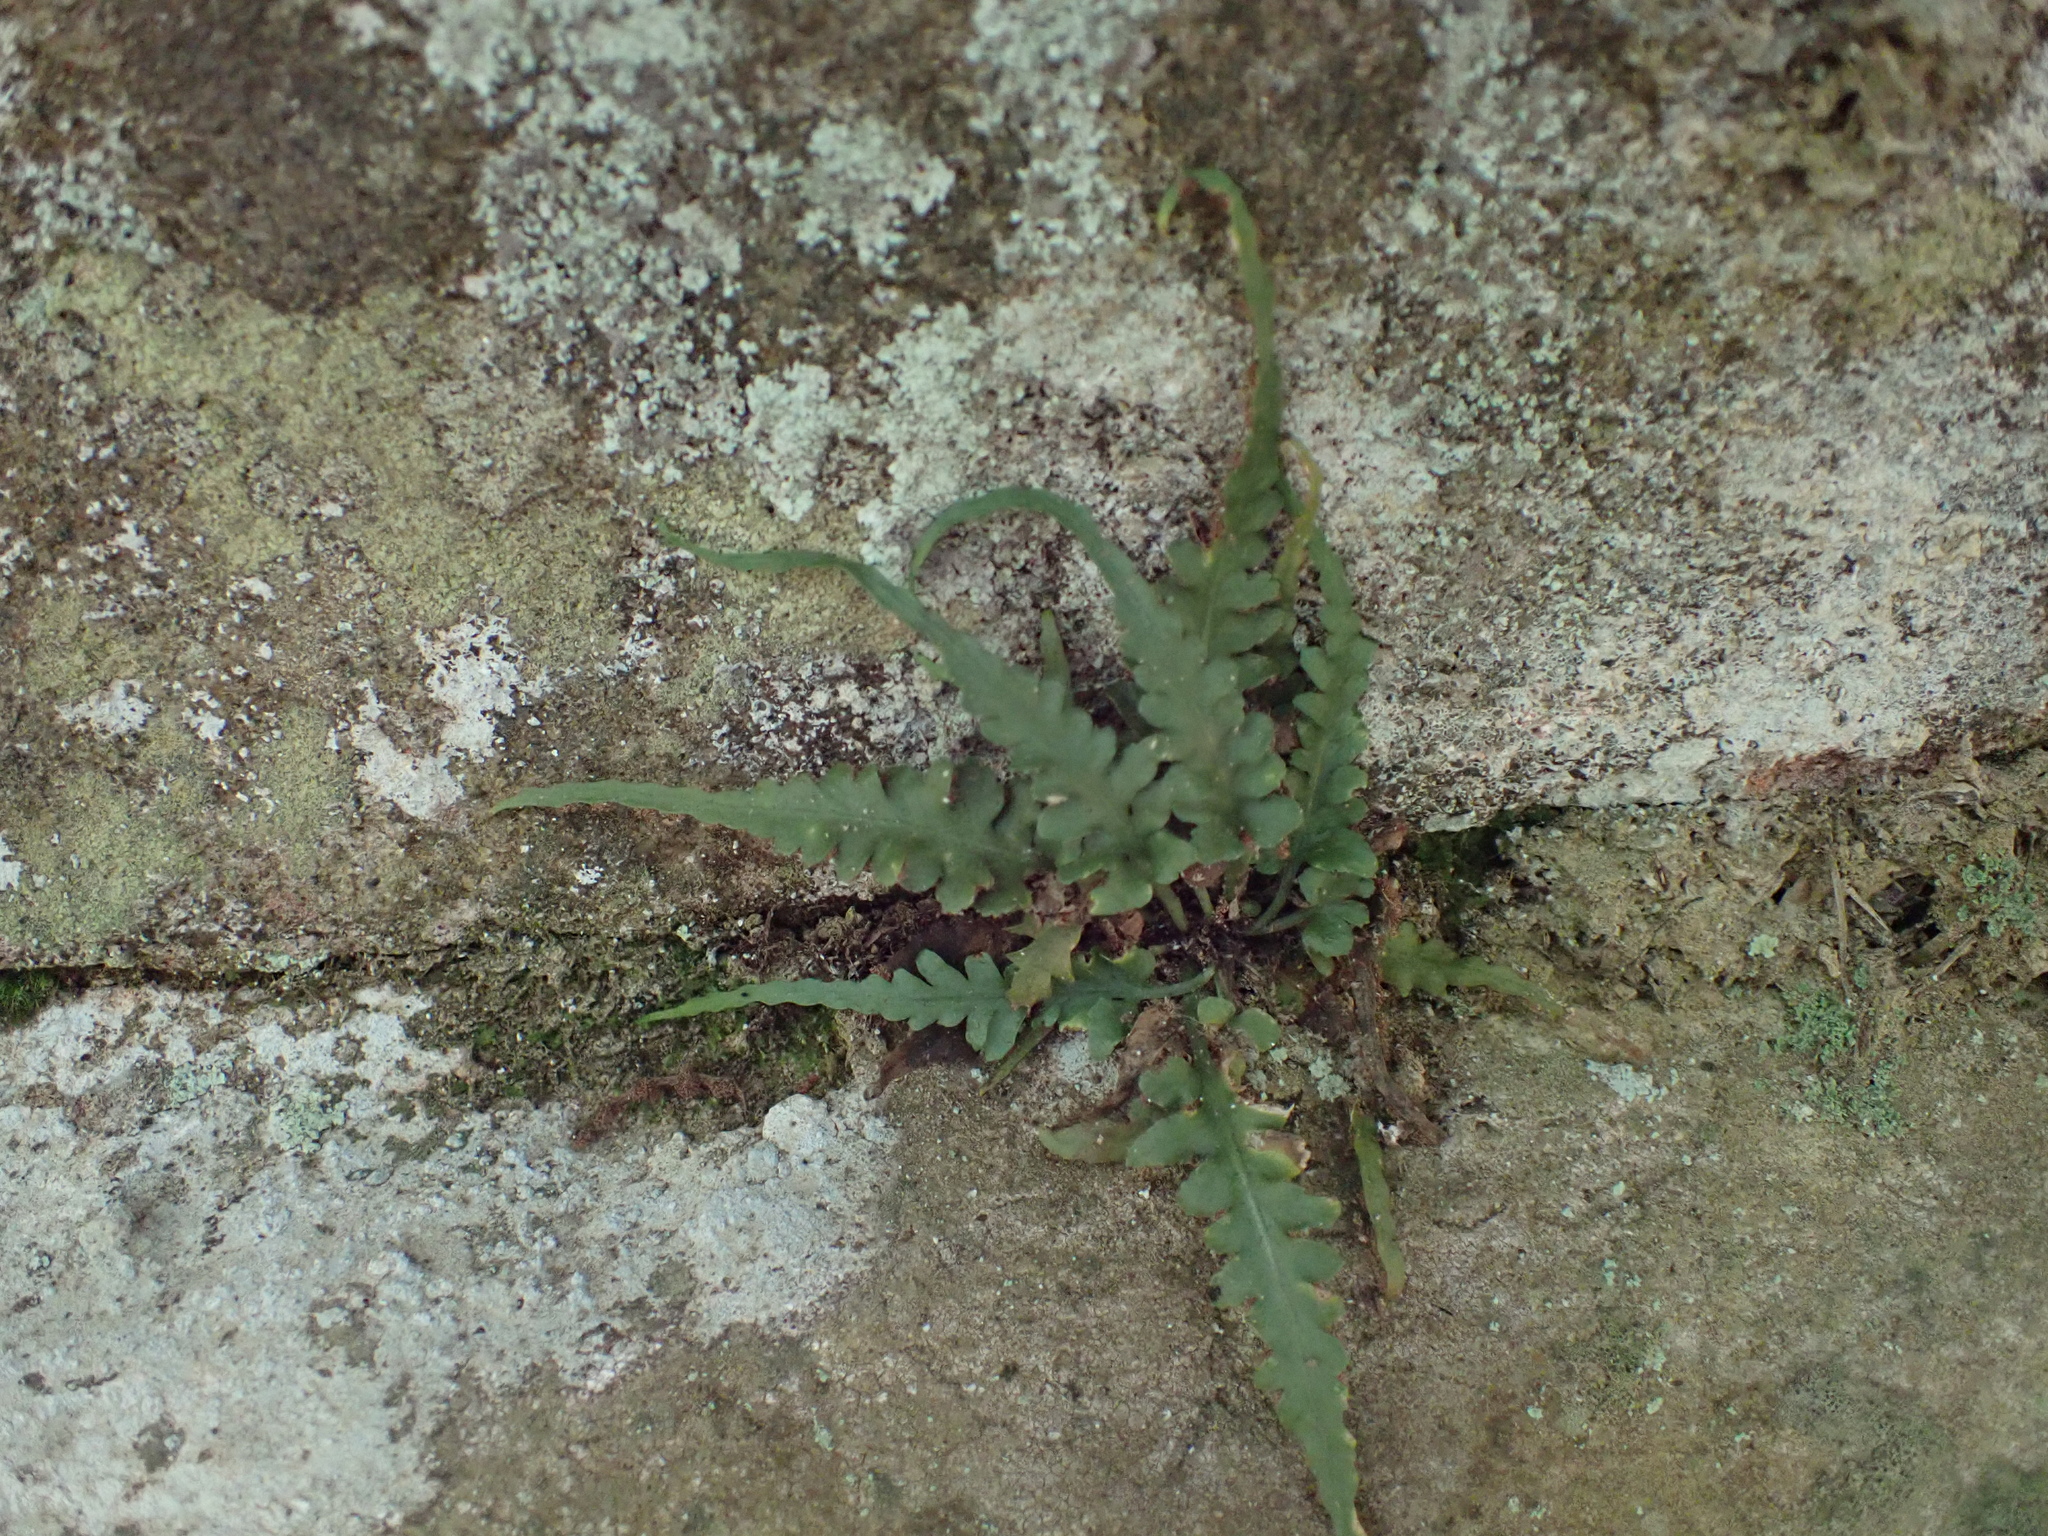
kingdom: Plantae
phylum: Tracheophyta
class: Polypodiopsida
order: Polypodiales
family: Aspleniaceae
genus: Asplenium
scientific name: Asplenium pinnatifidum
